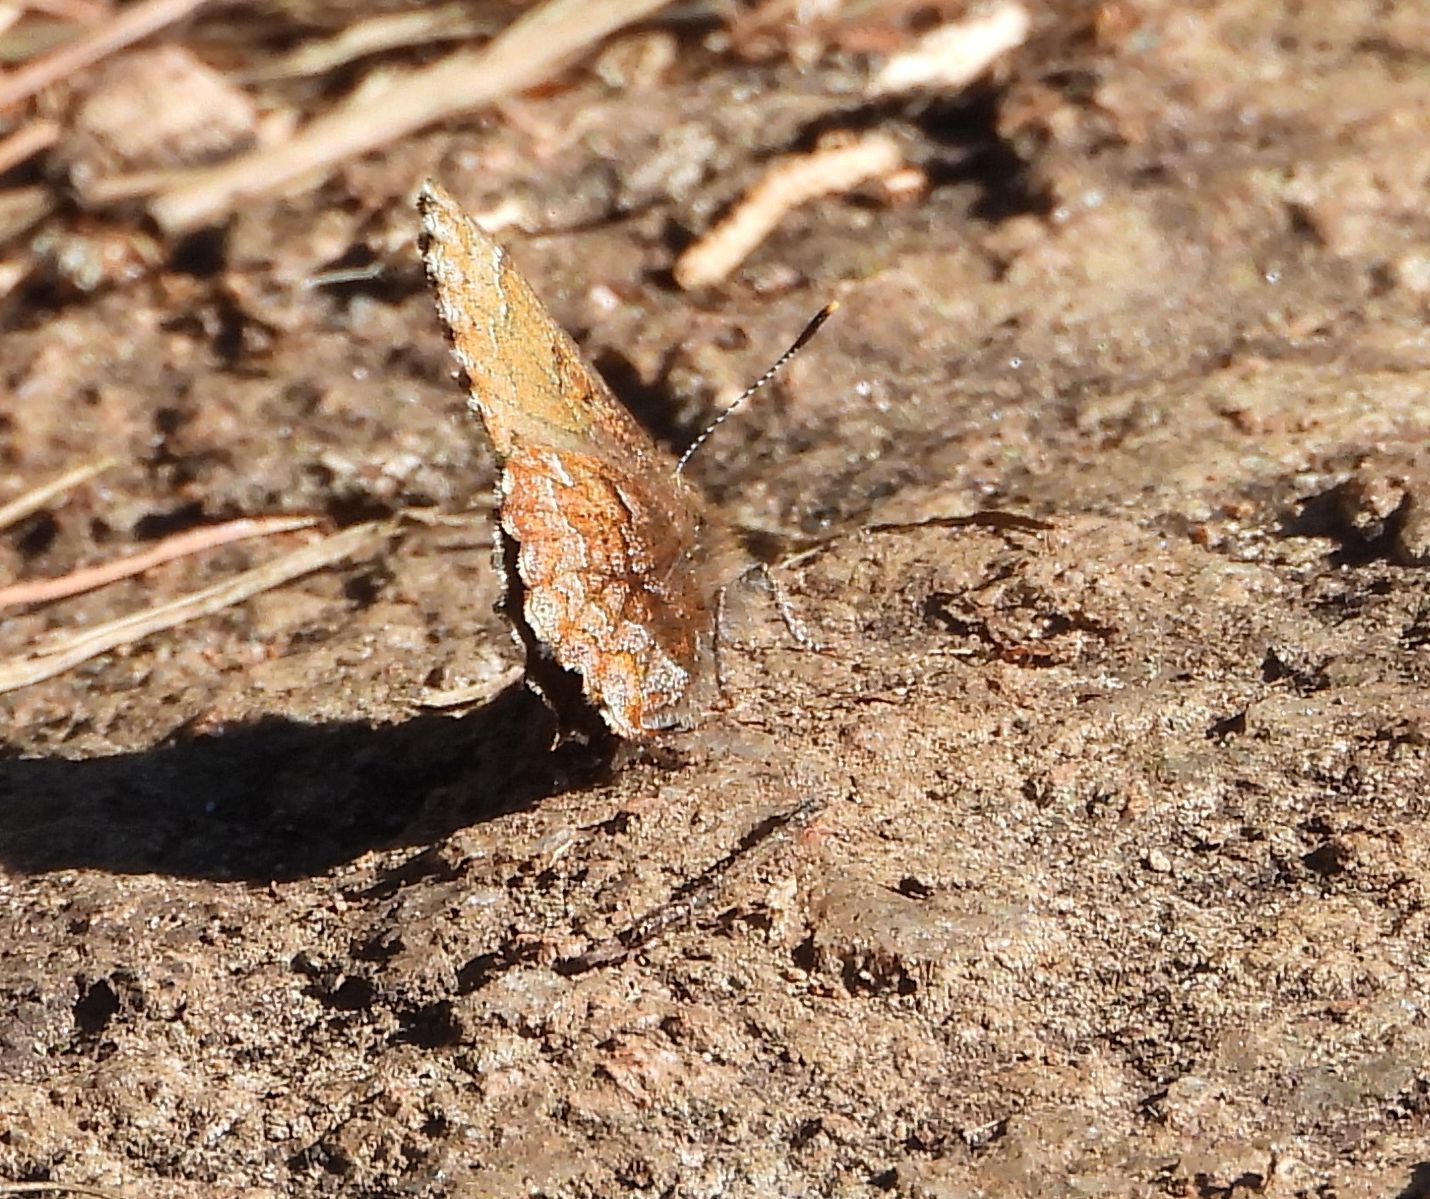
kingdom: Animalia
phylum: Arthropoda
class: Insecta
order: Lepidoptera
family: Lycaenidae
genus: Incisalia
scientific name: Incisalia niphon
